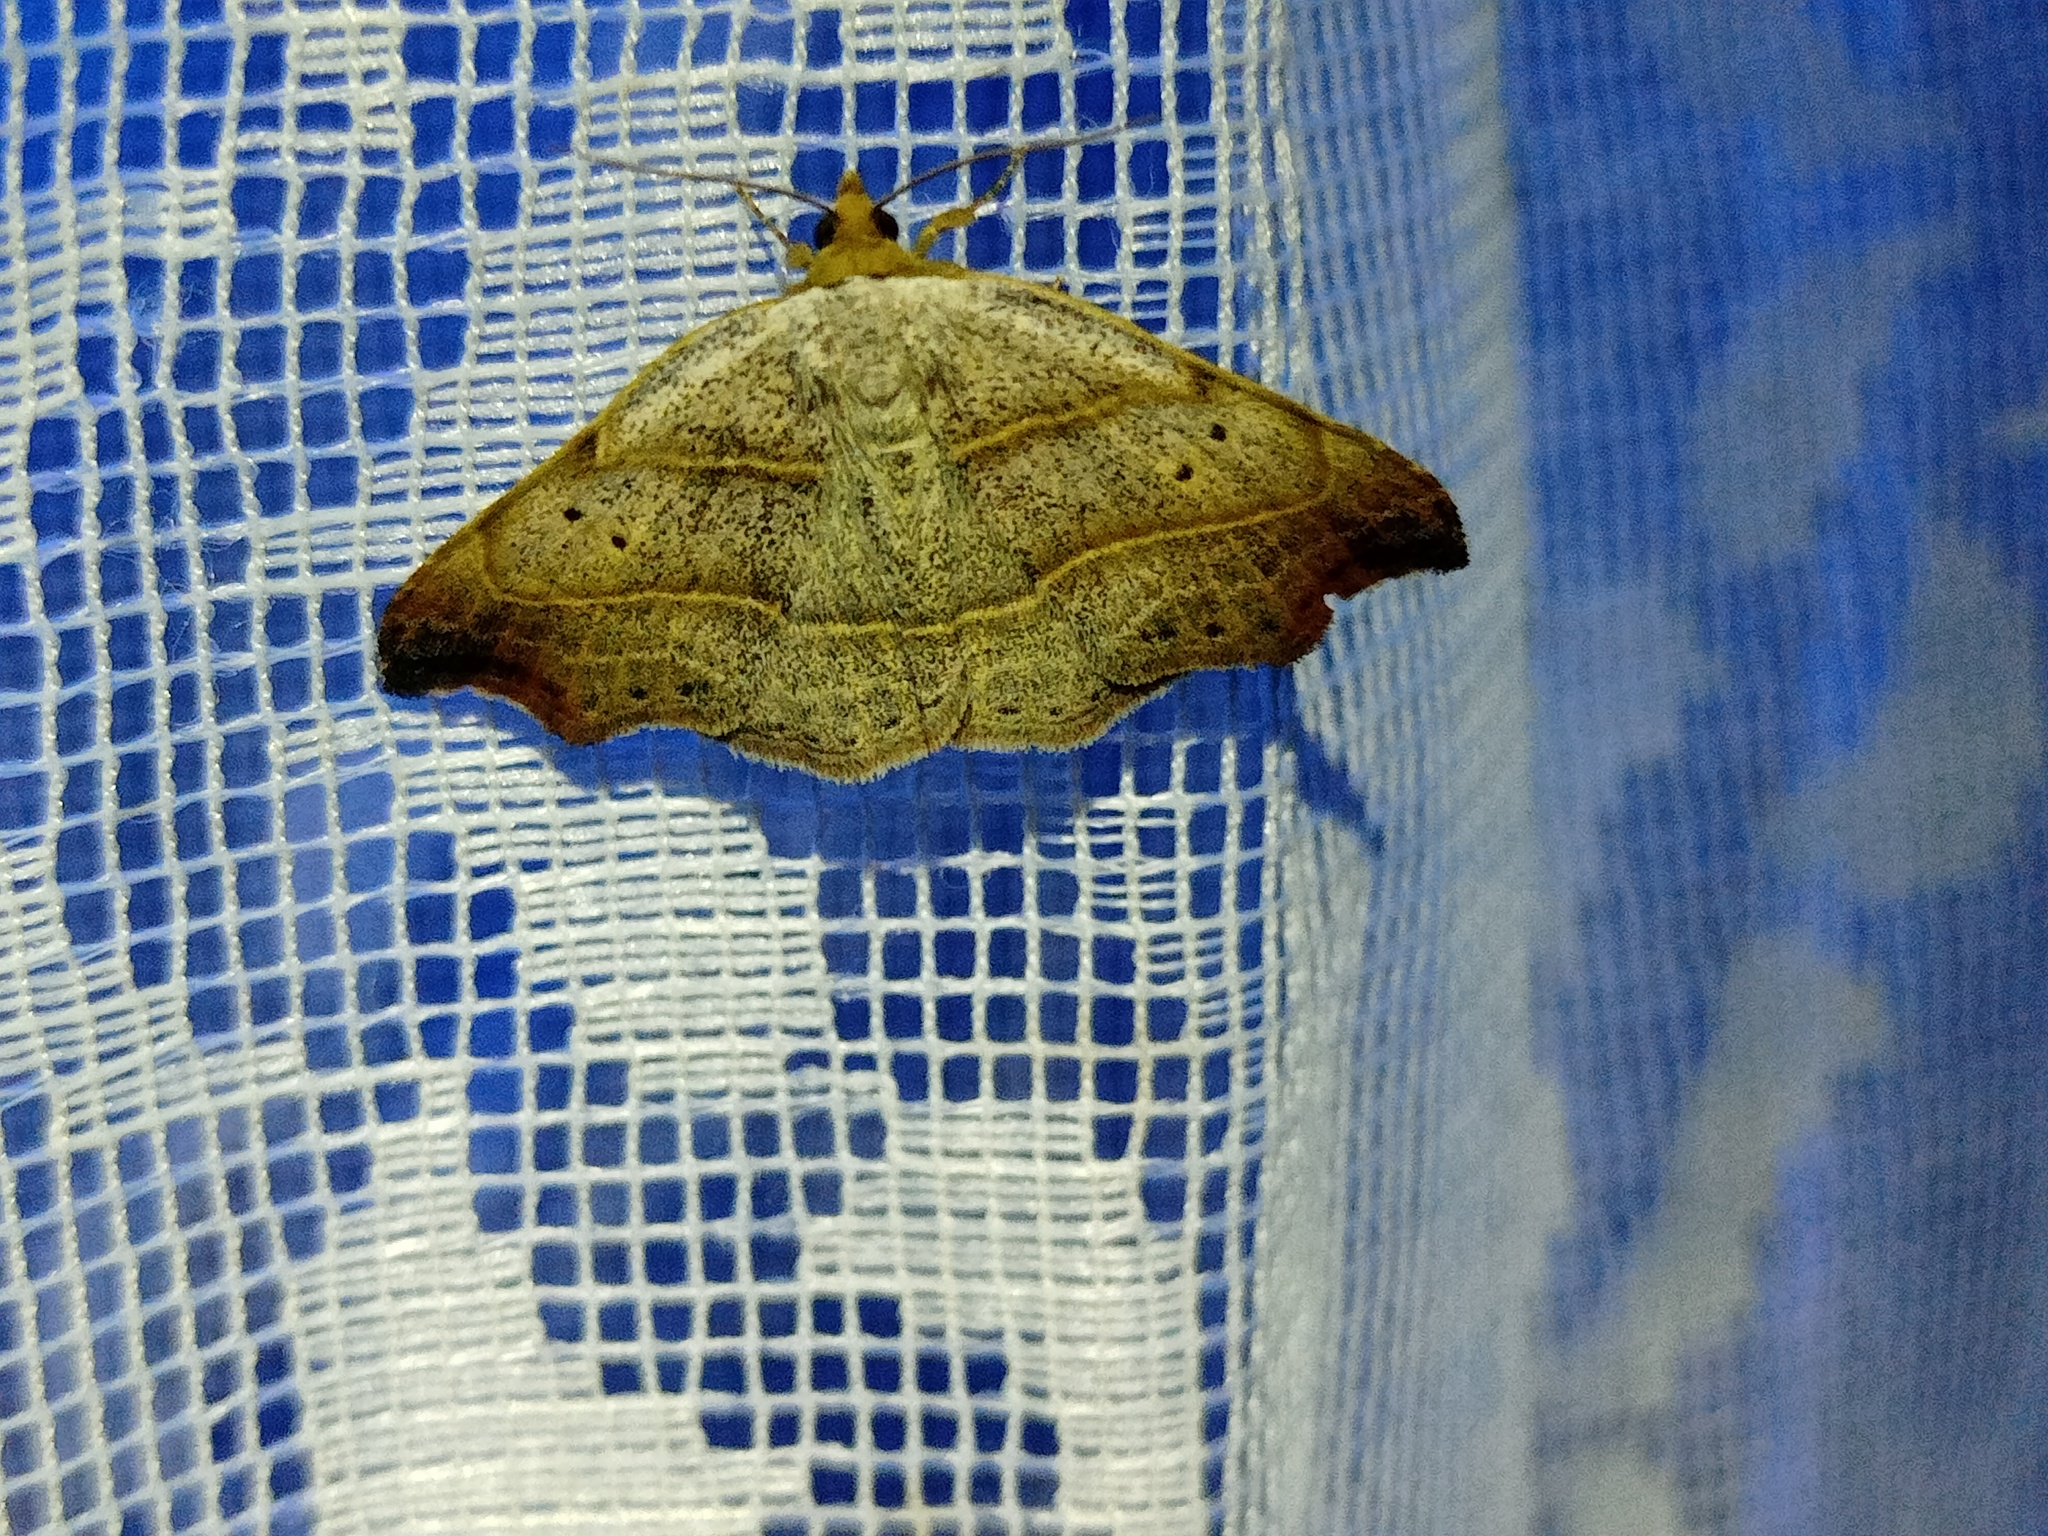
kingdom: Animalia
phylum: Arthropoda
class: Insecta
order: Lepidoptera
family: Erebidae
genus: Laspeyria
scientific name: Laspeyria flexula
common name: Beautiful hook-tip
